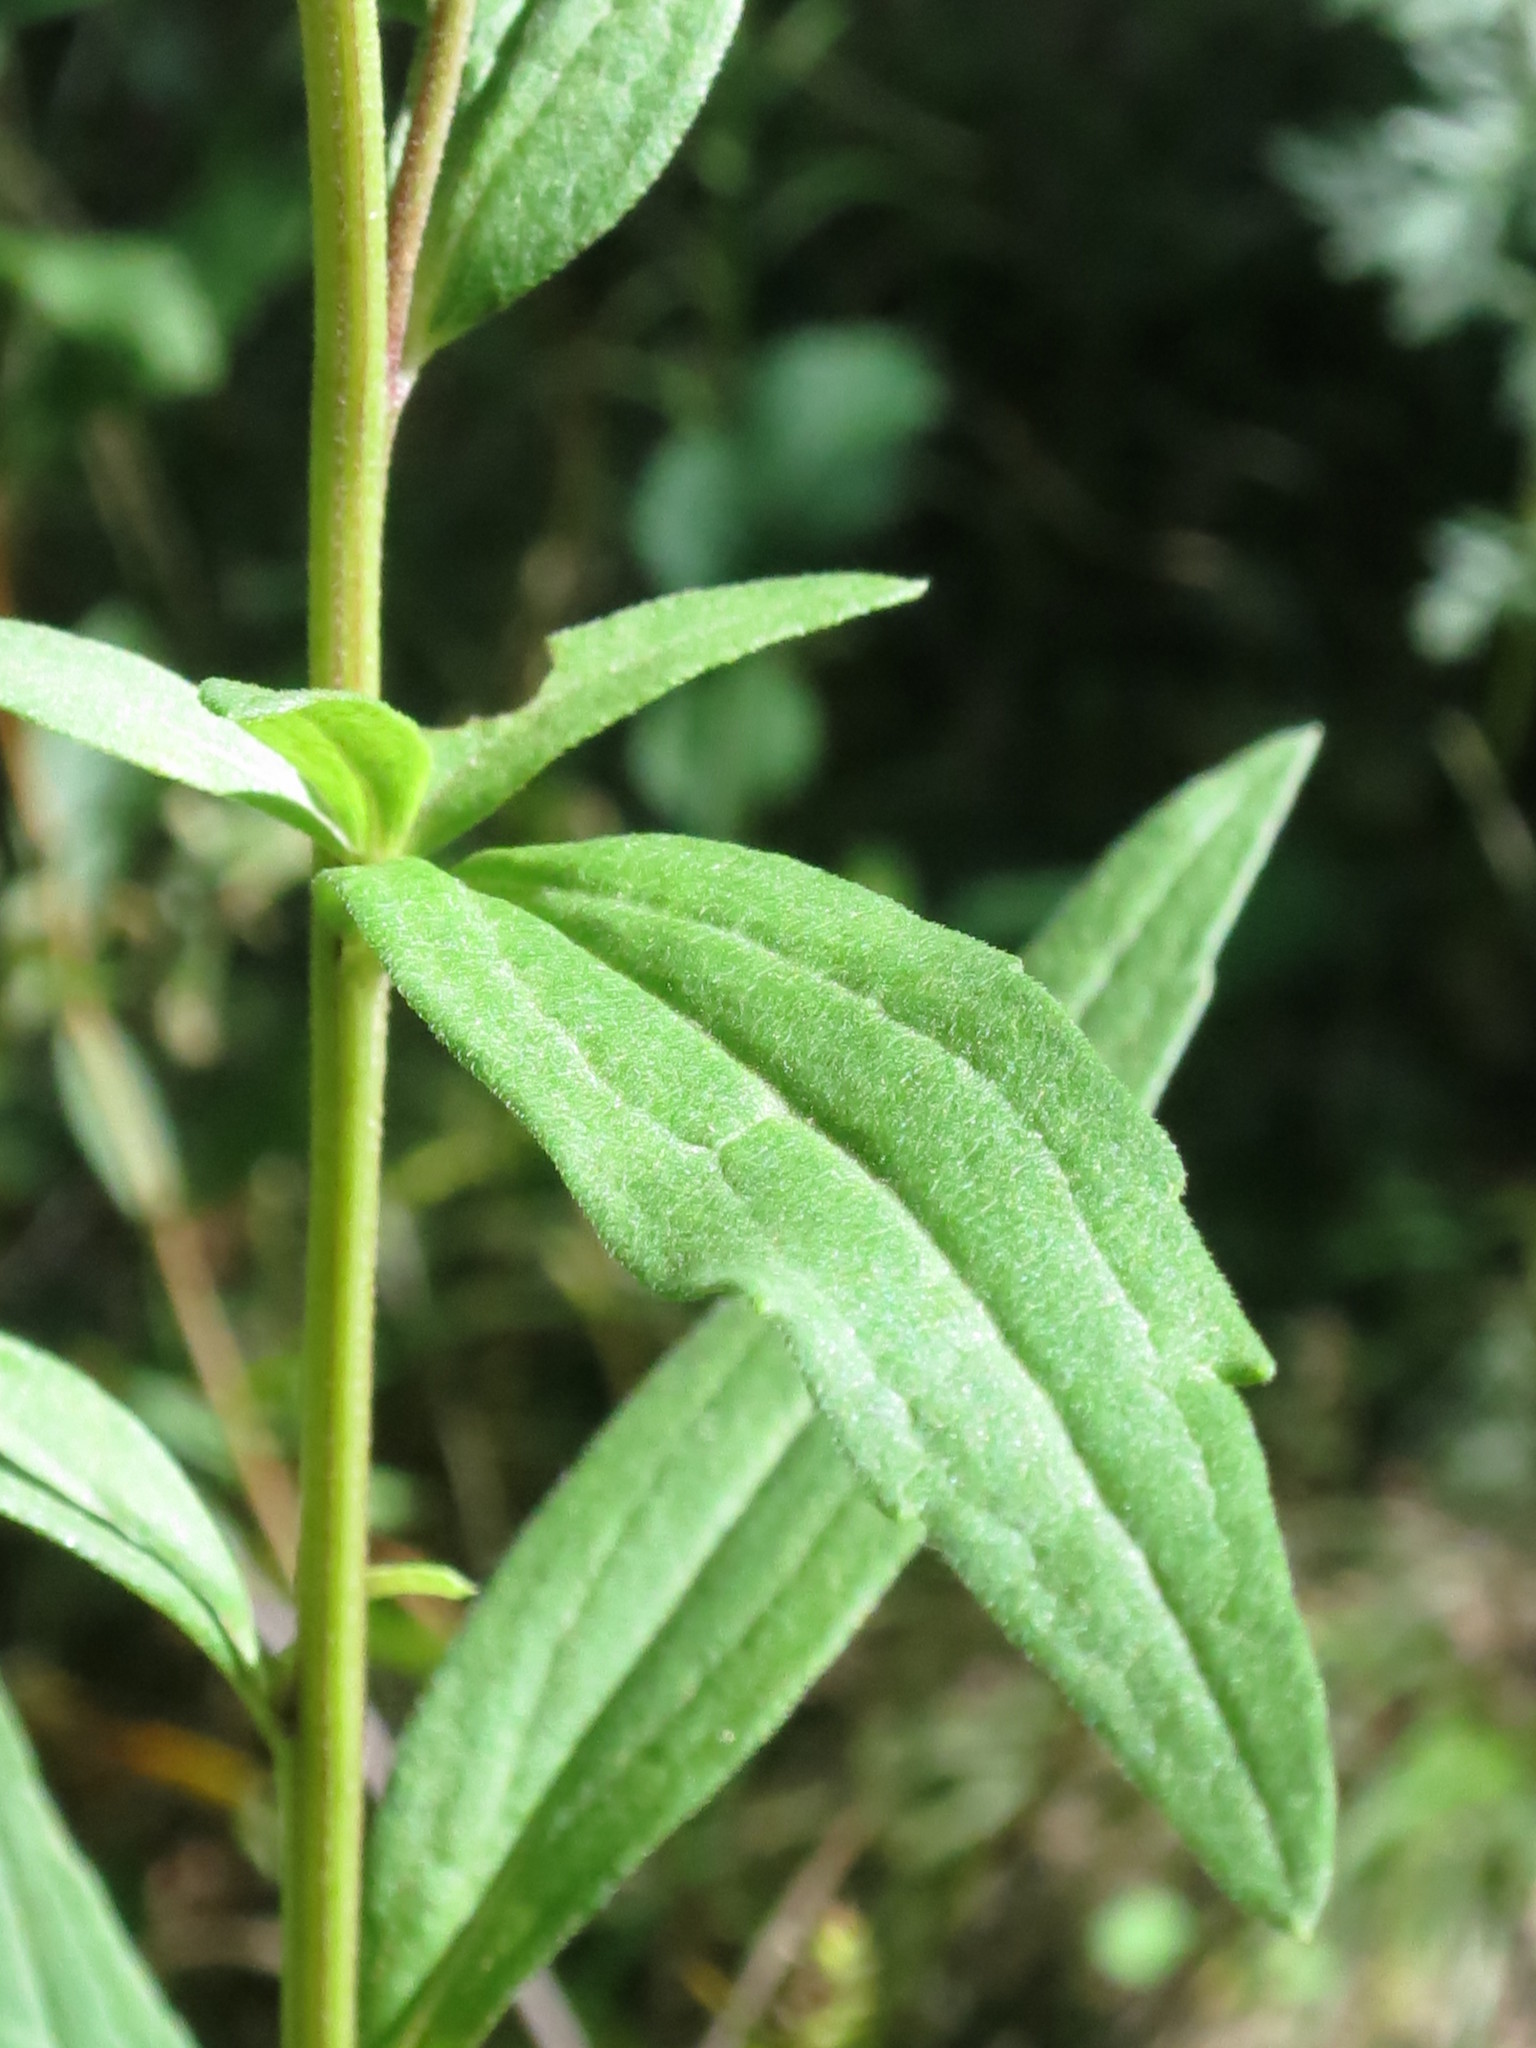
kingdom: Plantae
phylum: Tracheophyta
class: Magnoliopsida
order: Asterales
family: Asteraceae
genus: Aster
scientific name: Aster maackii
